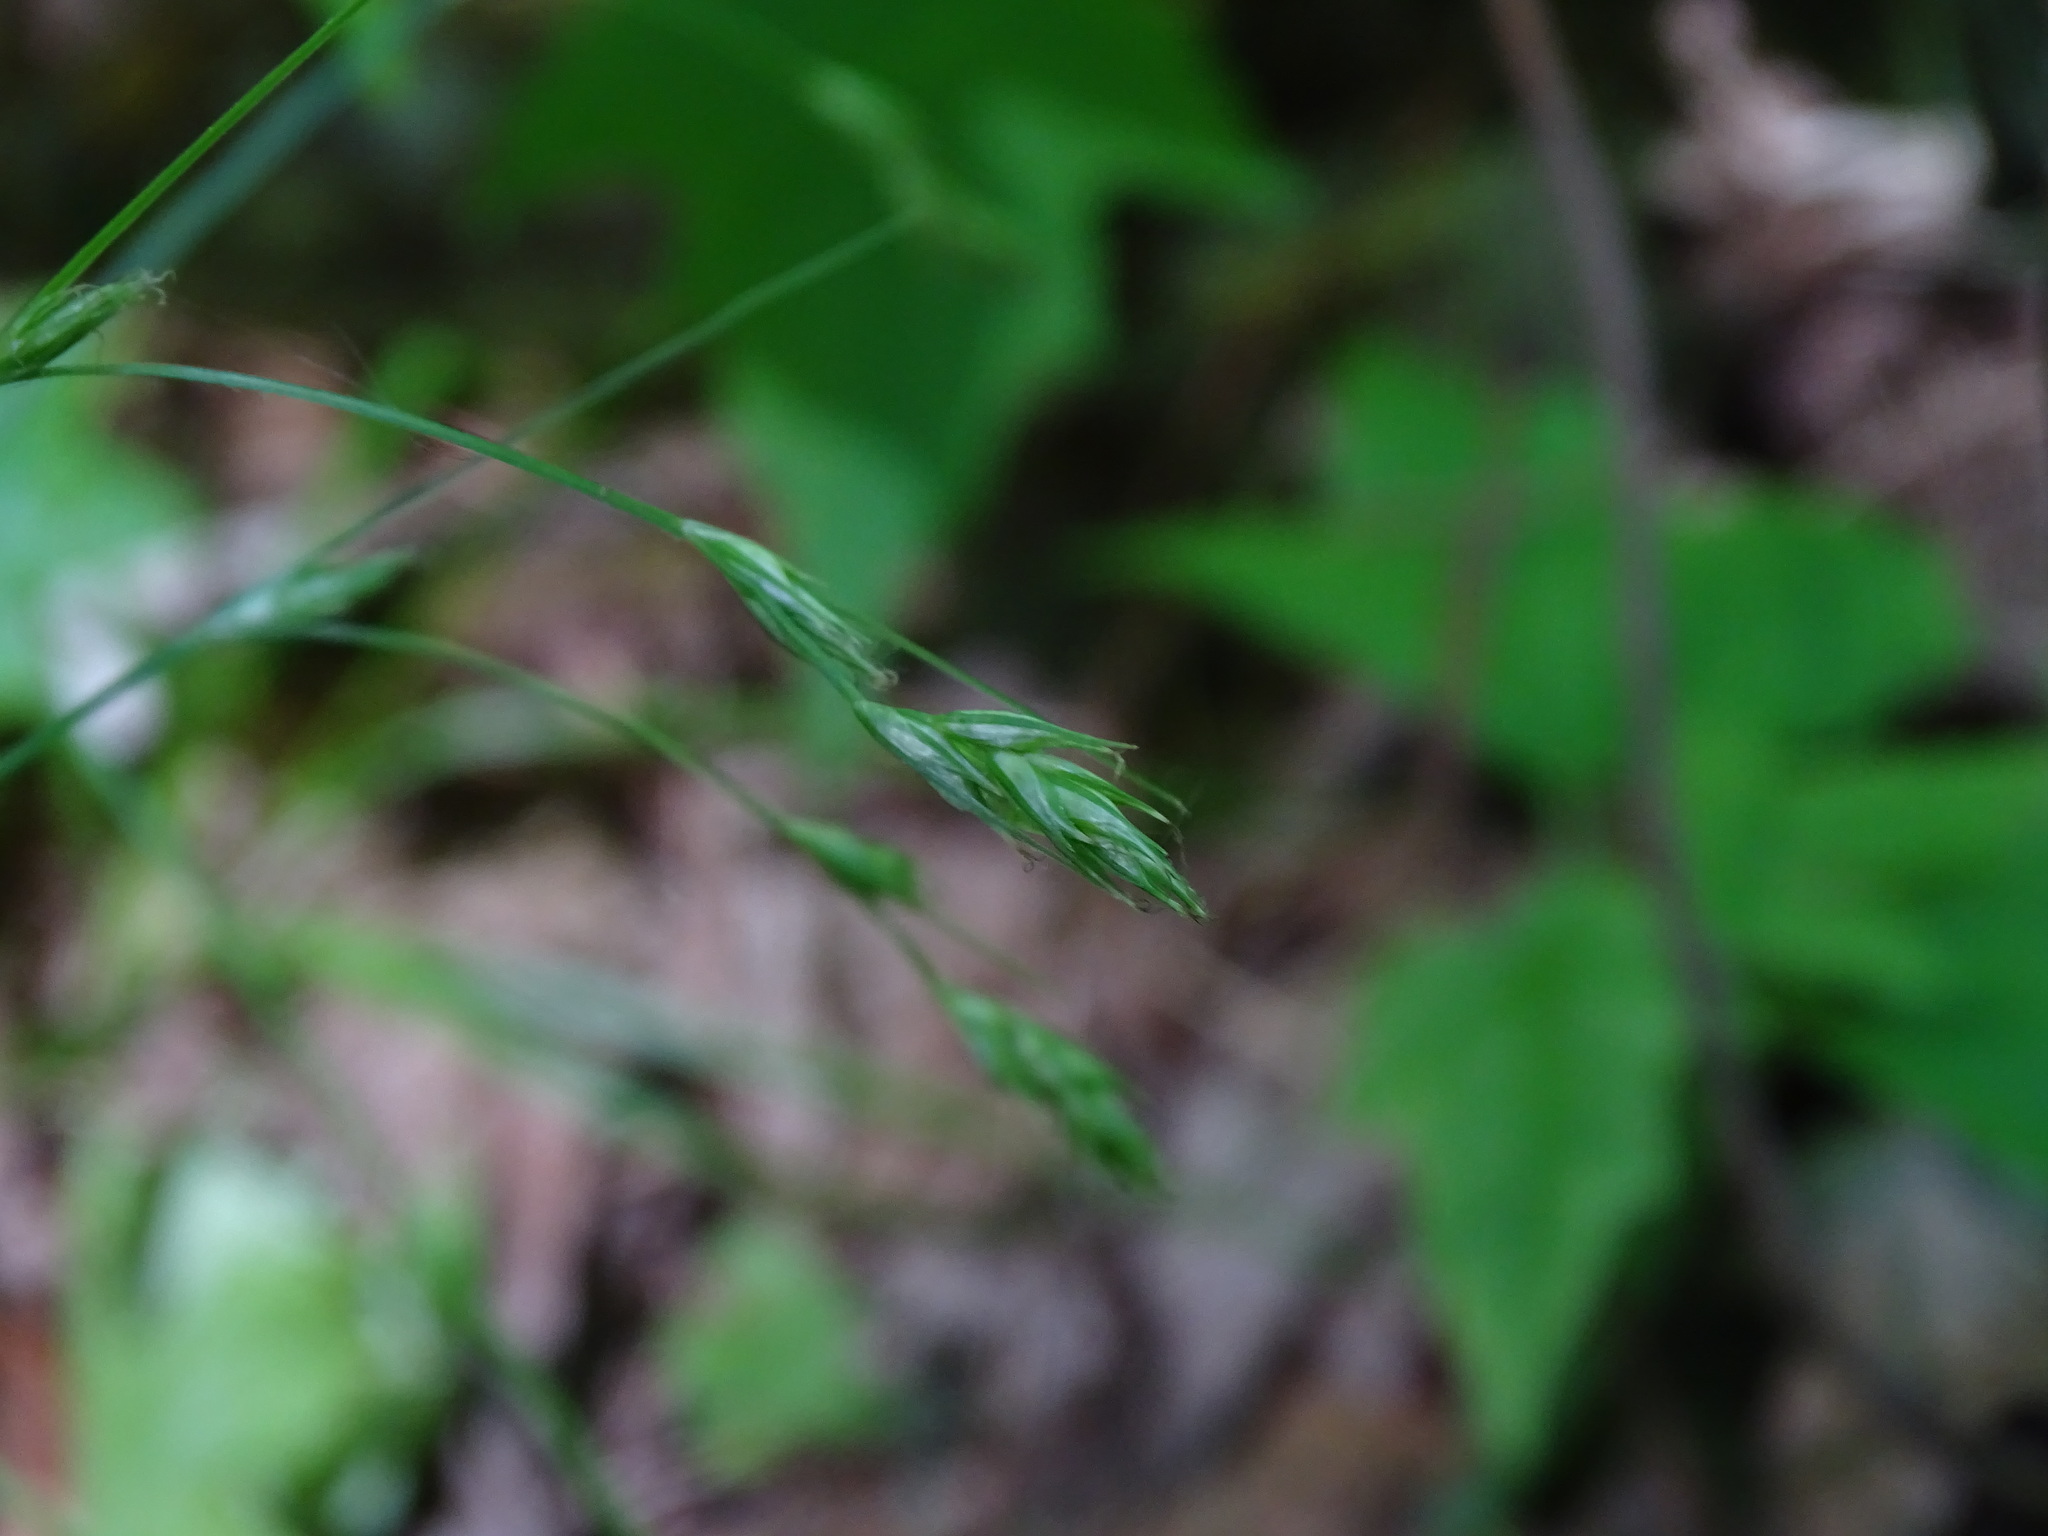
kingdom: Plantae
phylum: Tracheophyta
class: Liliopsida
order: Poales
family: Cyperaceae
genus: Carex
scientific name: Carex deweyana
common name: Dewey's sedge
